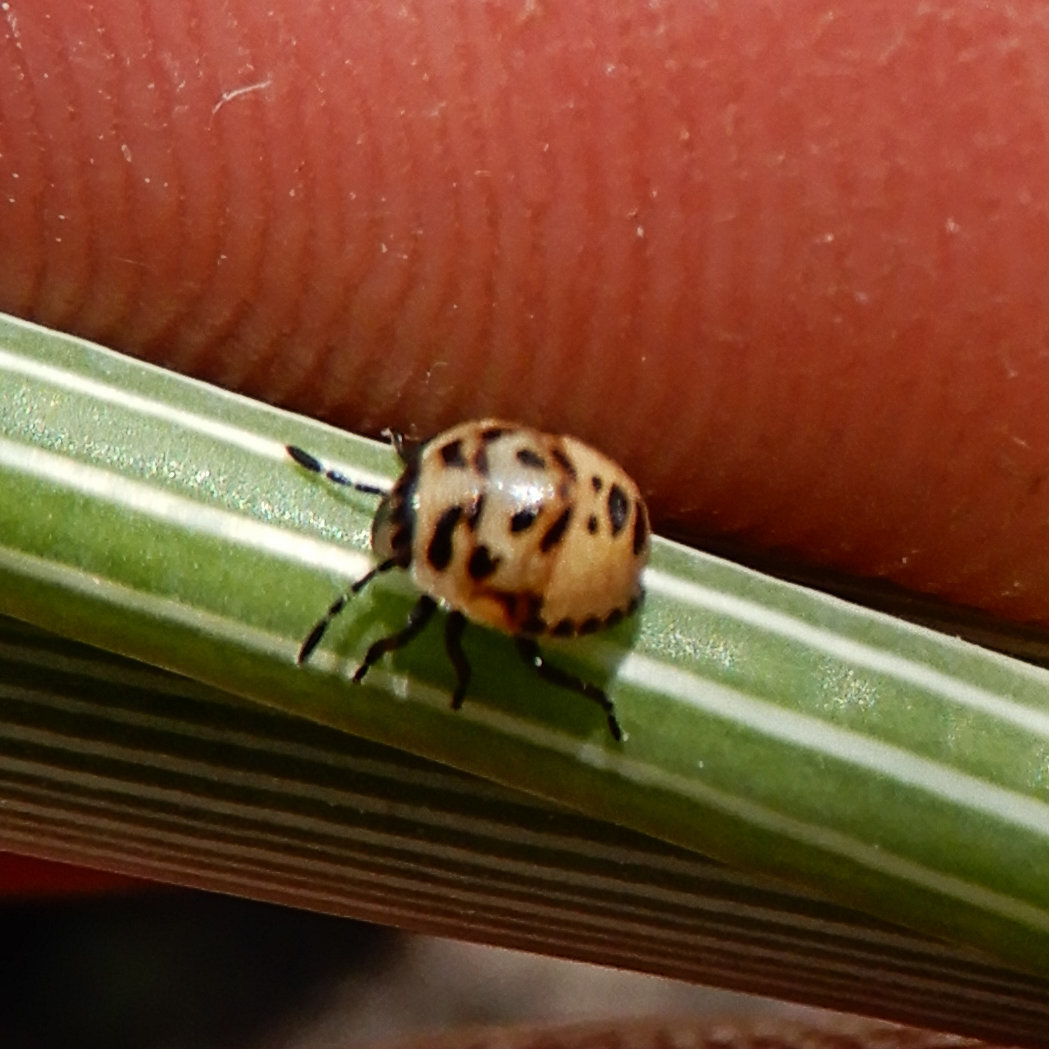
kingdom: Animalia
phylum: Arthropoda
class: Insecta
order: Hemiptera
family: Pentatomidae
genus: Cosmopepla
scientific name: Cosmopepla lintneriana
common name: Twice-stabbed stink bug
